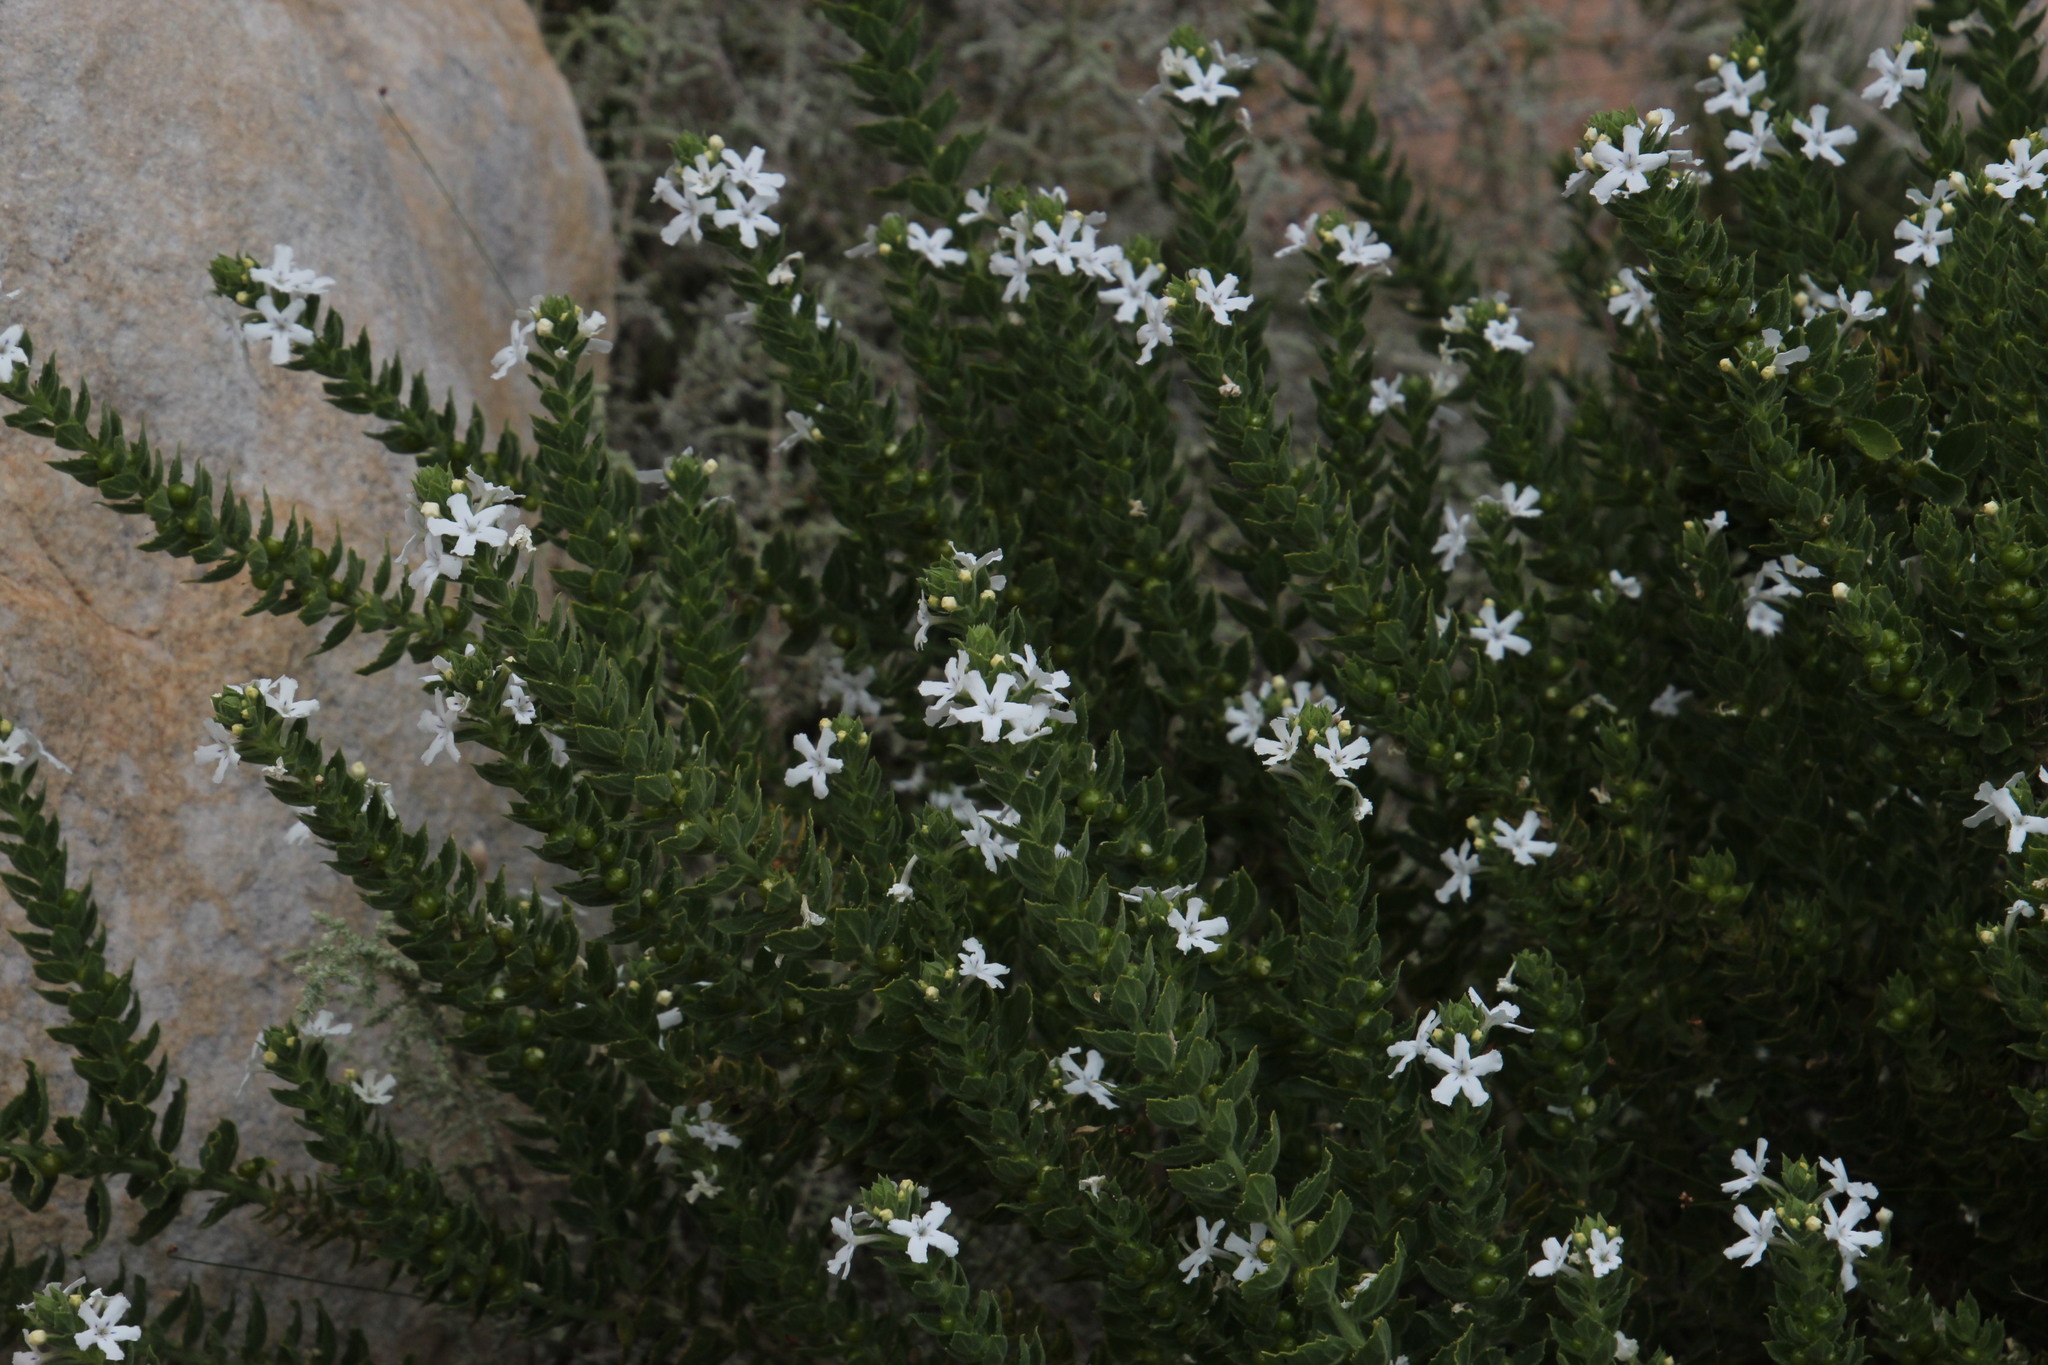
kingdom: Plantae
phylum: Tracheophyta
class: Magnoliopsida
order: Lamiales
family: Scrophulariaceae
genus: Oftia
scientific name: Oftia africana
